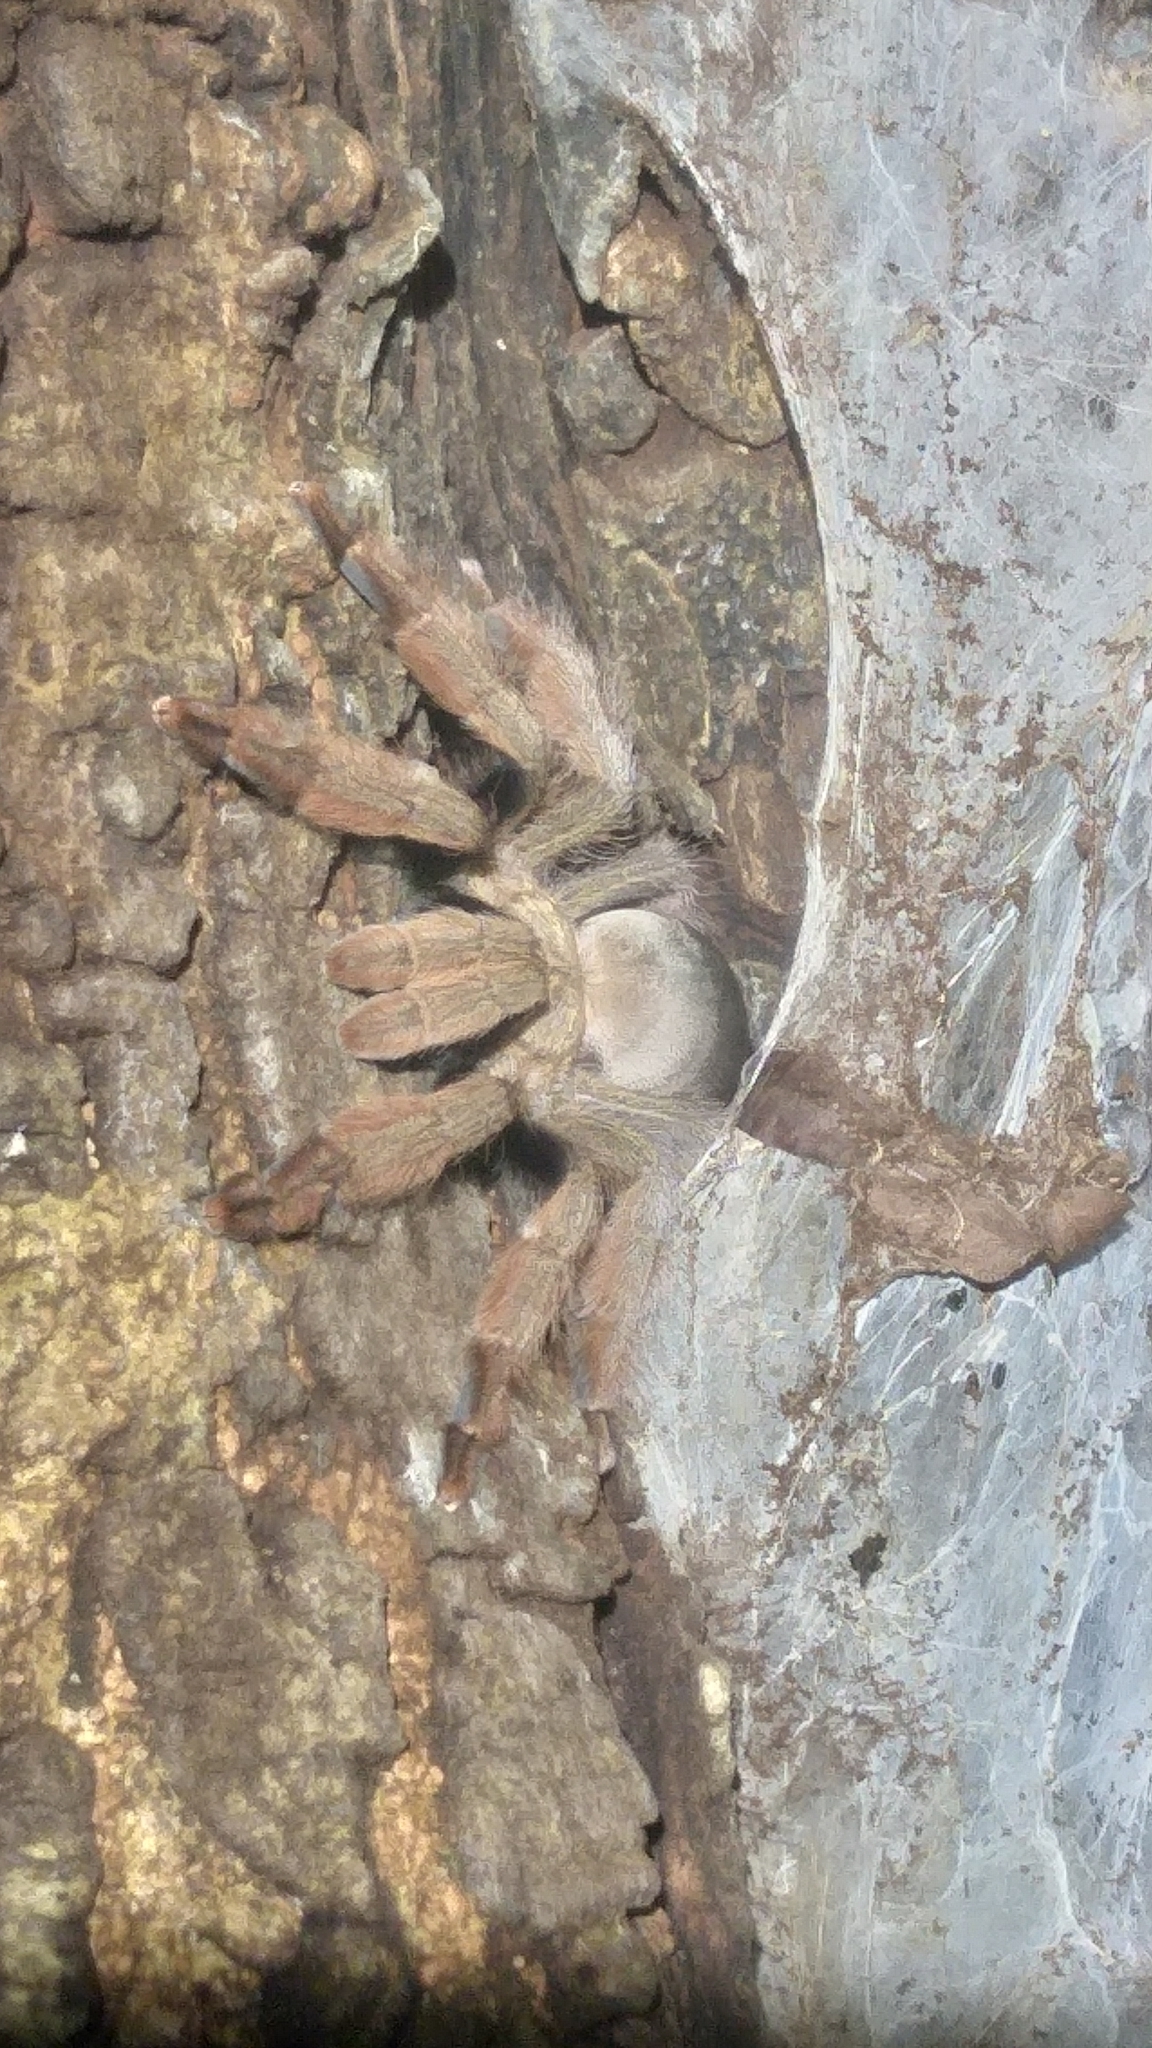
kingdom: Animalia
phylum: Arthropoda
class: Arachnida
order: Araneae
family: Theraphosidae
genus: Psalmopoeus
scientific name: Psalmopoeus pulcher
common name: Tarantula spiders
